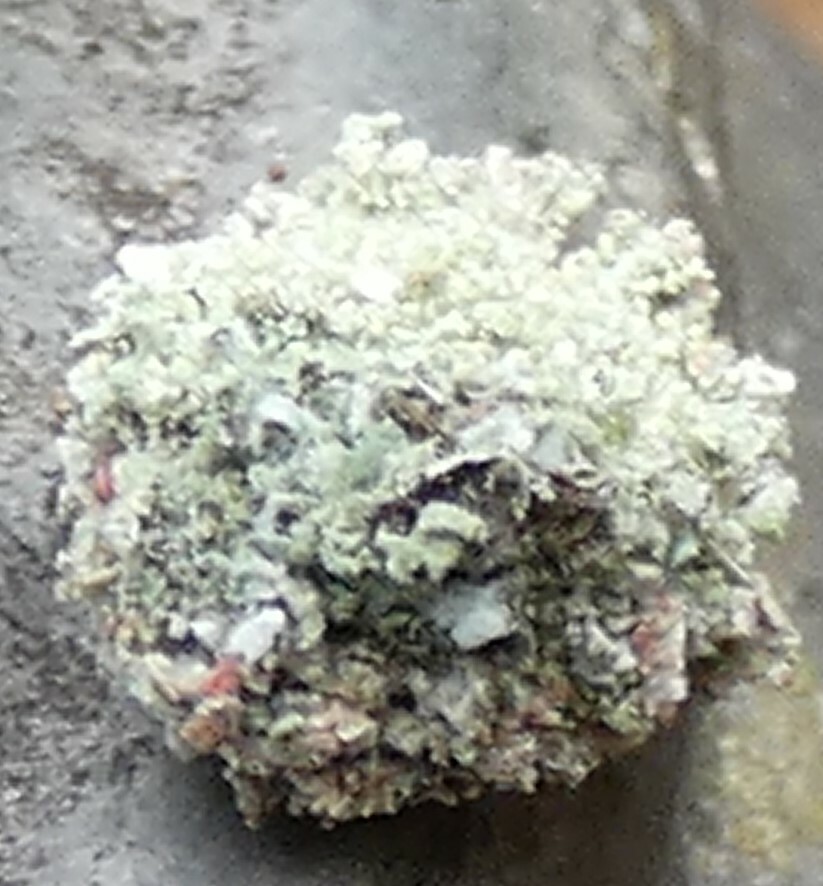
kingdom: Animalia
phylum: Arthropoda
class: Insecta
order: Neuroptera
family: Chrysopidae
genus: Leucochrysa
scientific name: Leucochrysa pavida
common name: Lichen-carrying green lacewing
